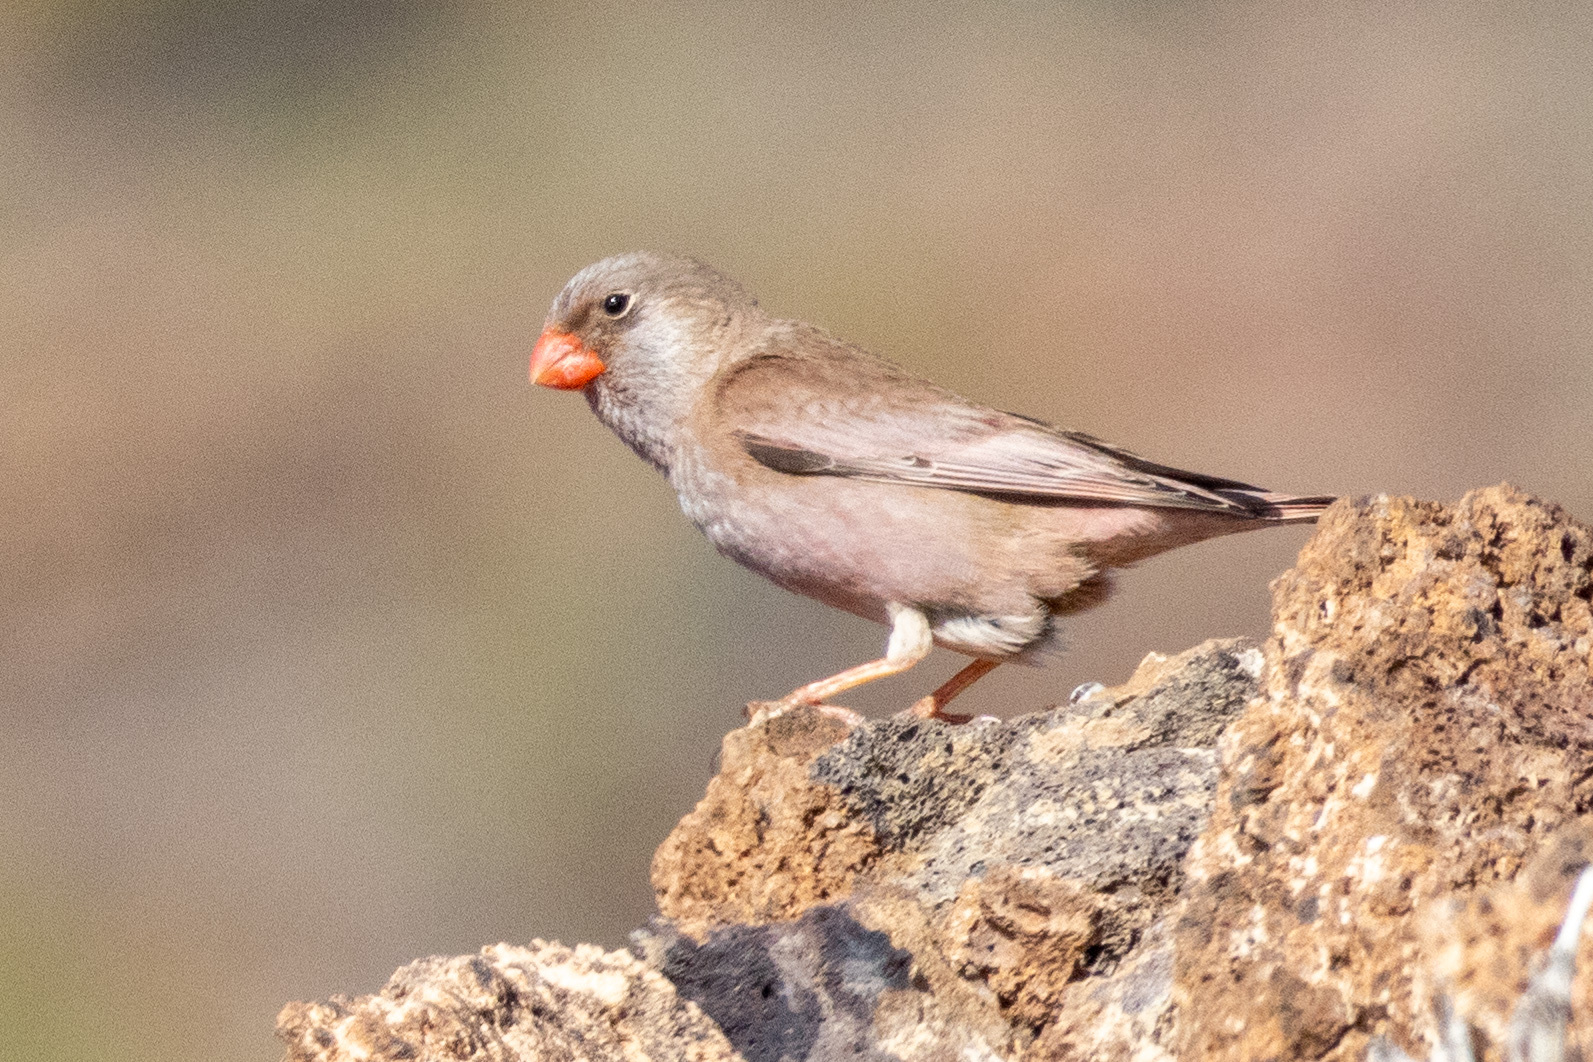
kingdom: Animalia
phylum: Chordata
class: Aves
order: Passeriformes
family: Fringillidae
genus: Bucanetes
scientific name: Bucanetes githagineus
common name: Trumpeter finch
